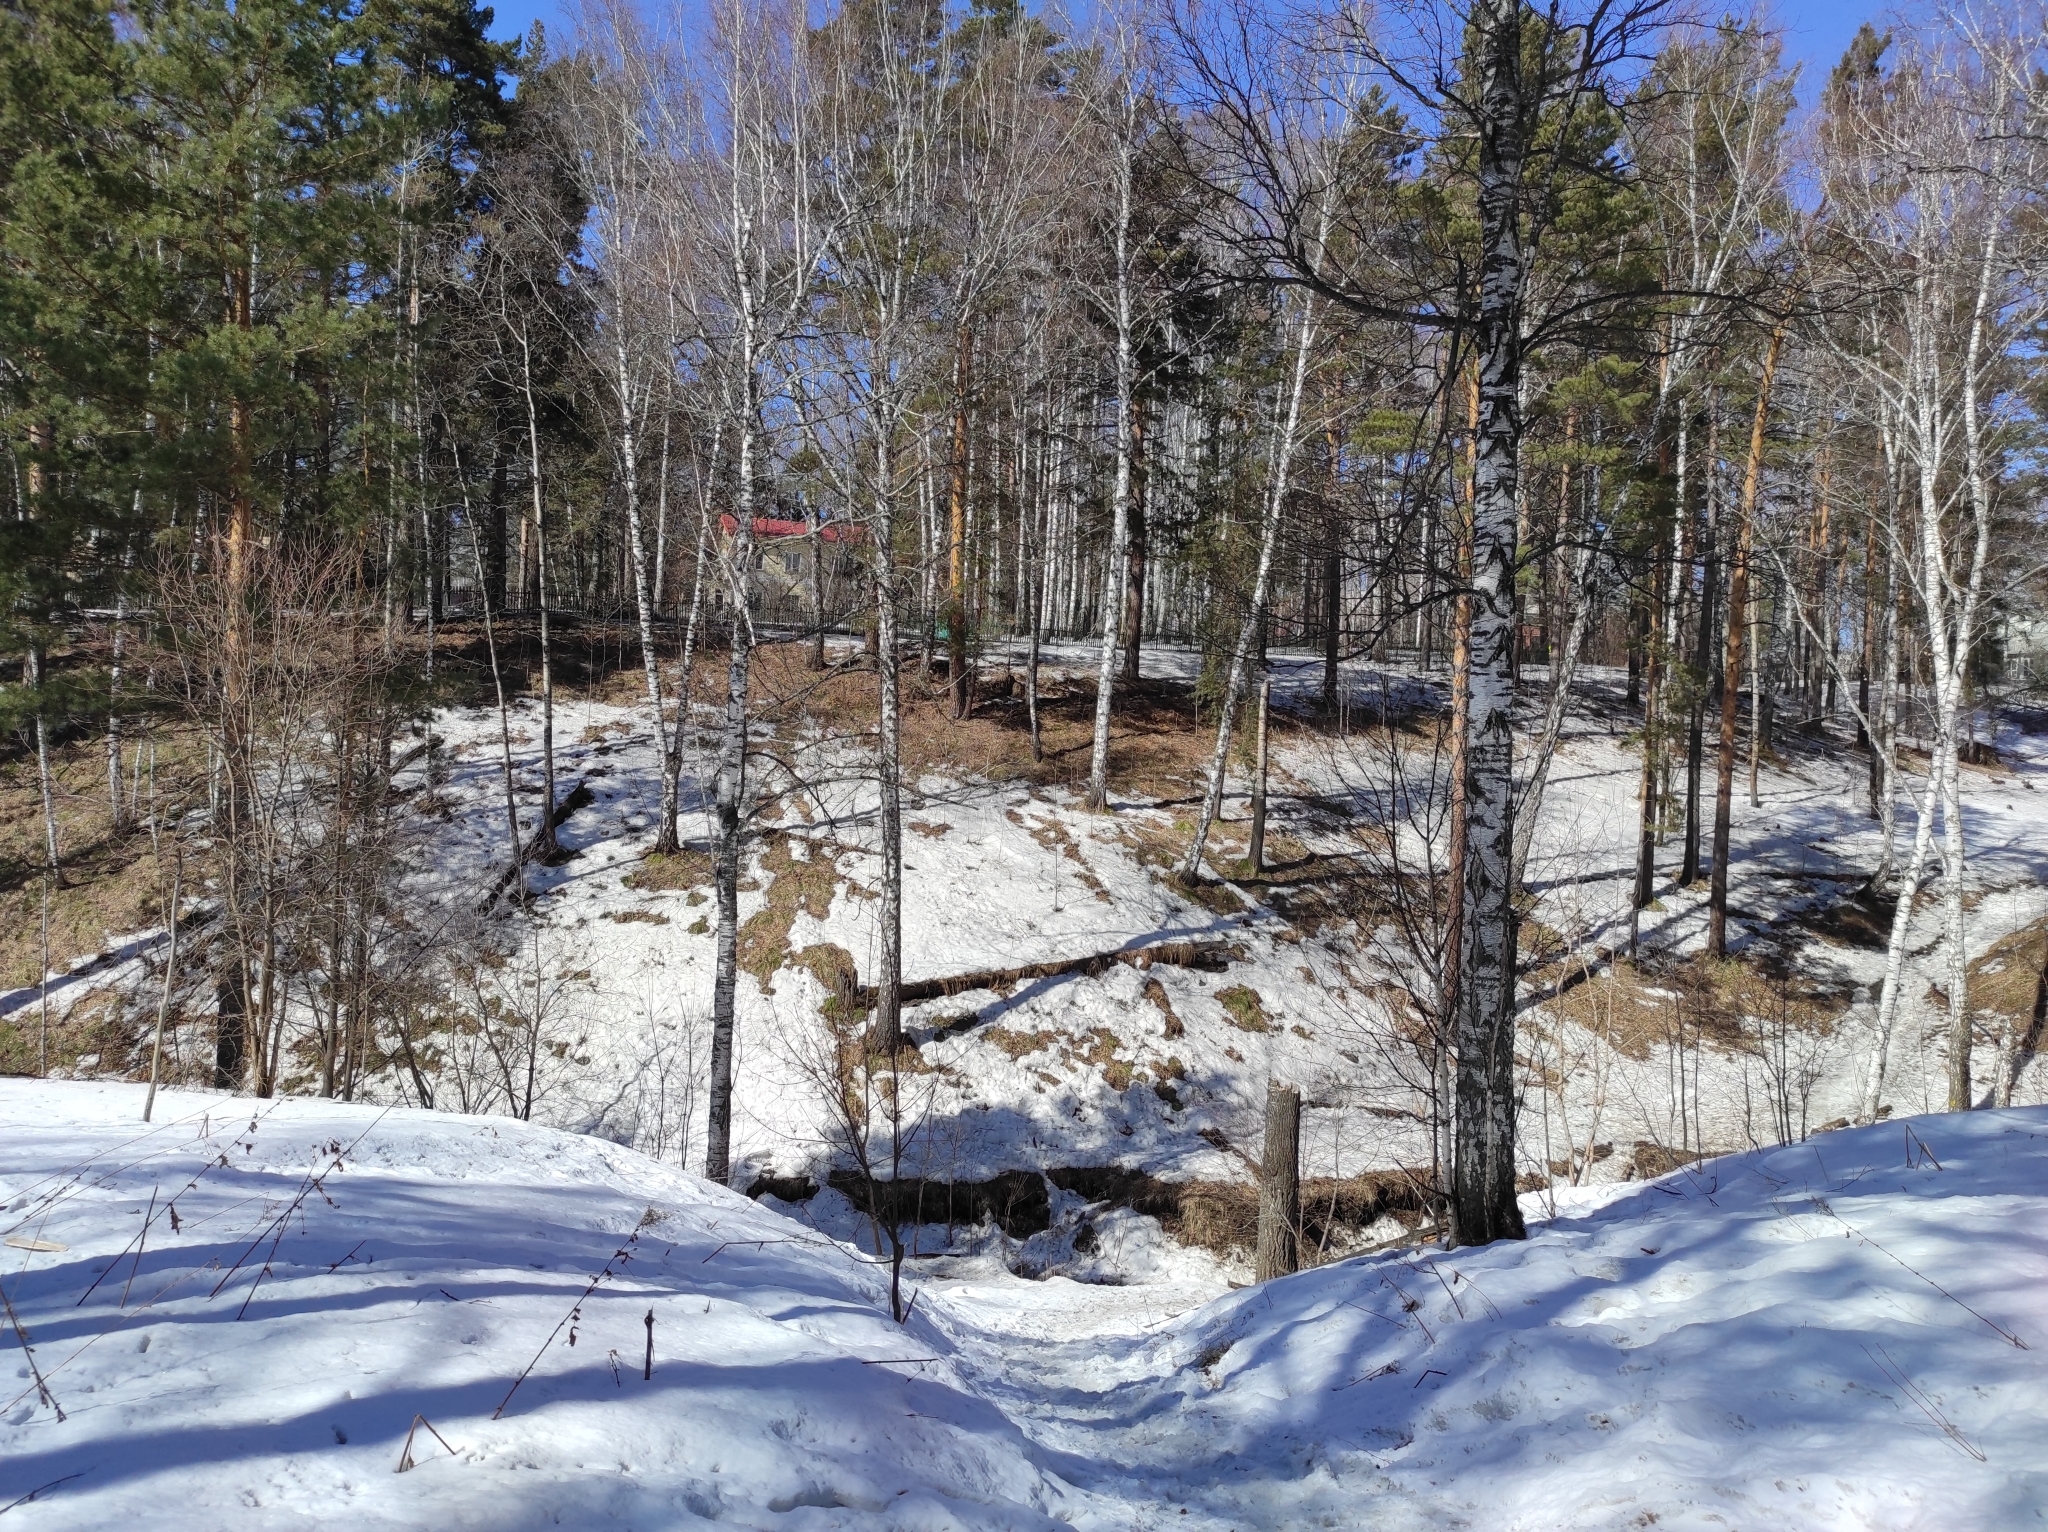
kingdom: Fungi
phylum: Basidiomycota
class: Agaricomycetes
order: Polyporales
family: Fomitopsidaceae
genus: Fomitopsis
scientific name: Fomitopsis pinicola
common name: Red-belted bracket
